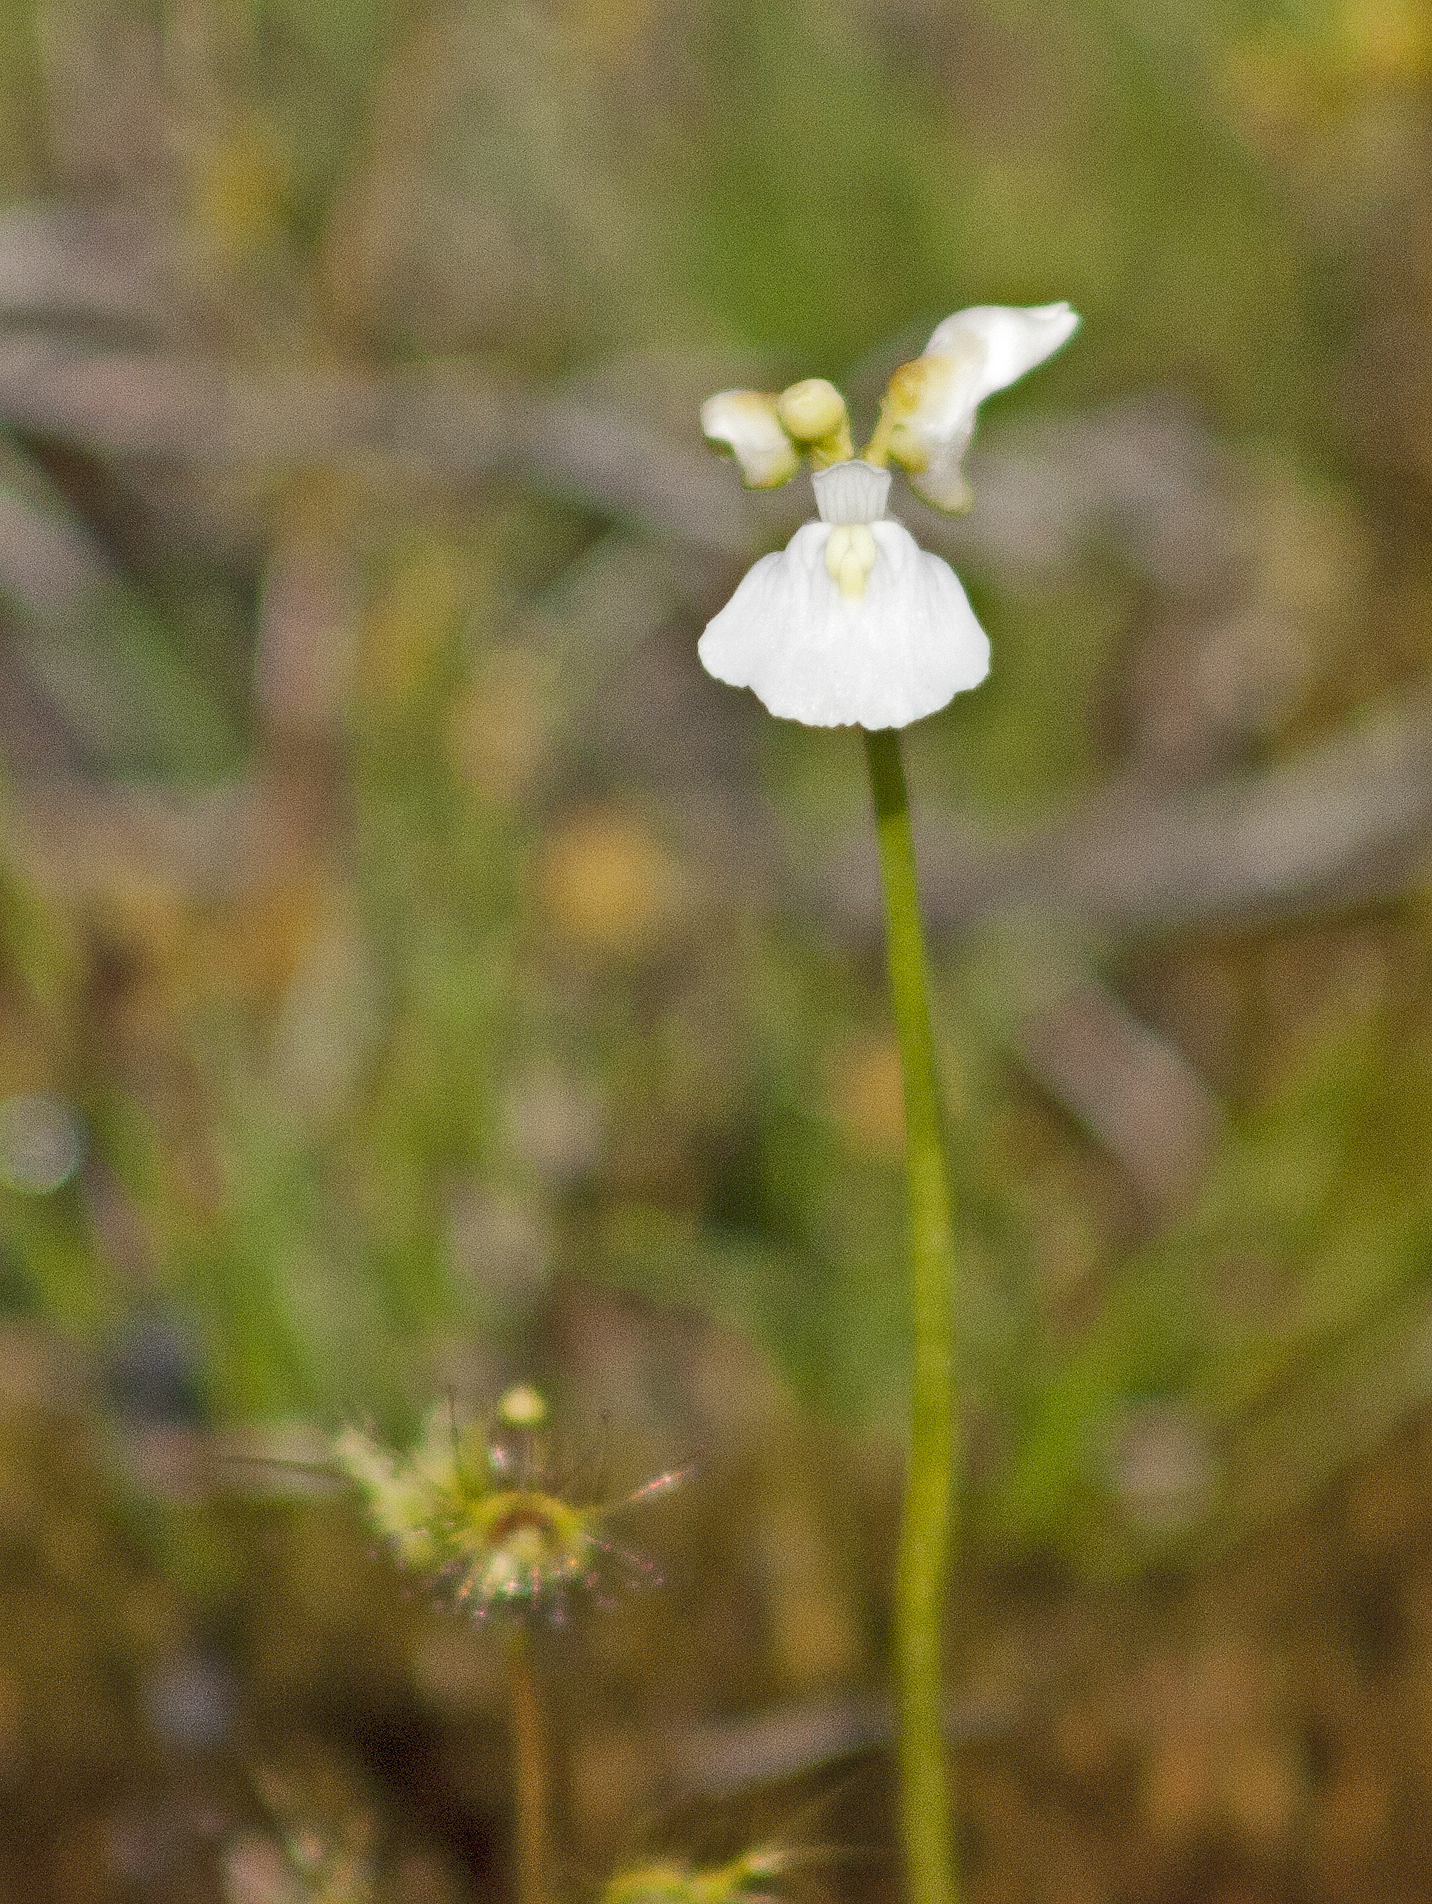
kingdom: Plantae
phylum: Tracheophyta
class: Magnoliopsida
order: Lamiales
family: Lentibulariaceae
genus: Utricularia
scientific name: Utricularia dichotoma
